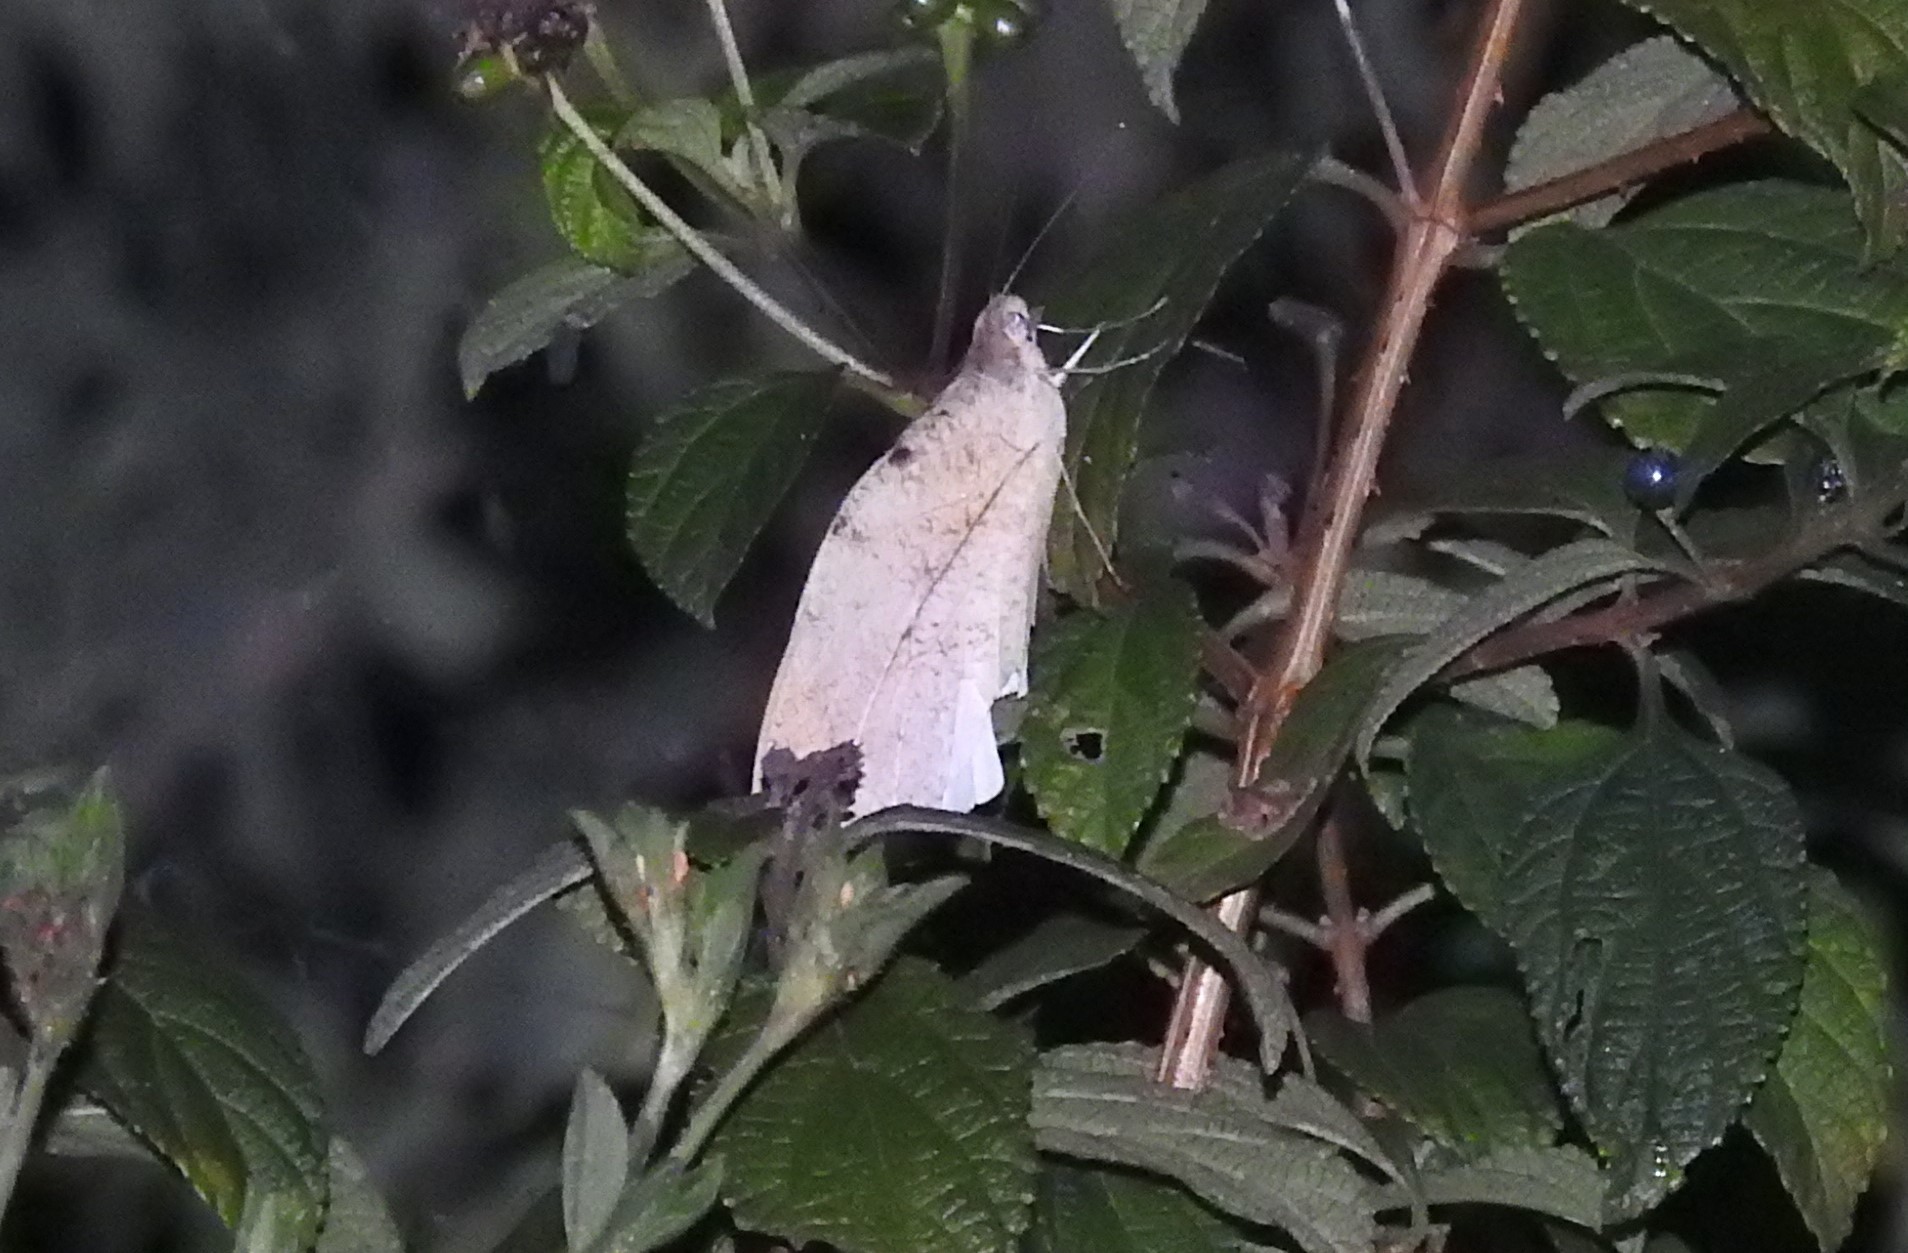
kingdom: Animalia
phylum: Arthropoda
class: Insecta
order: Lepidoptera
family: Pieridae
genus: Hebomoia
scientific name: Hebomoia glaucippe
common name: Great orange tip
